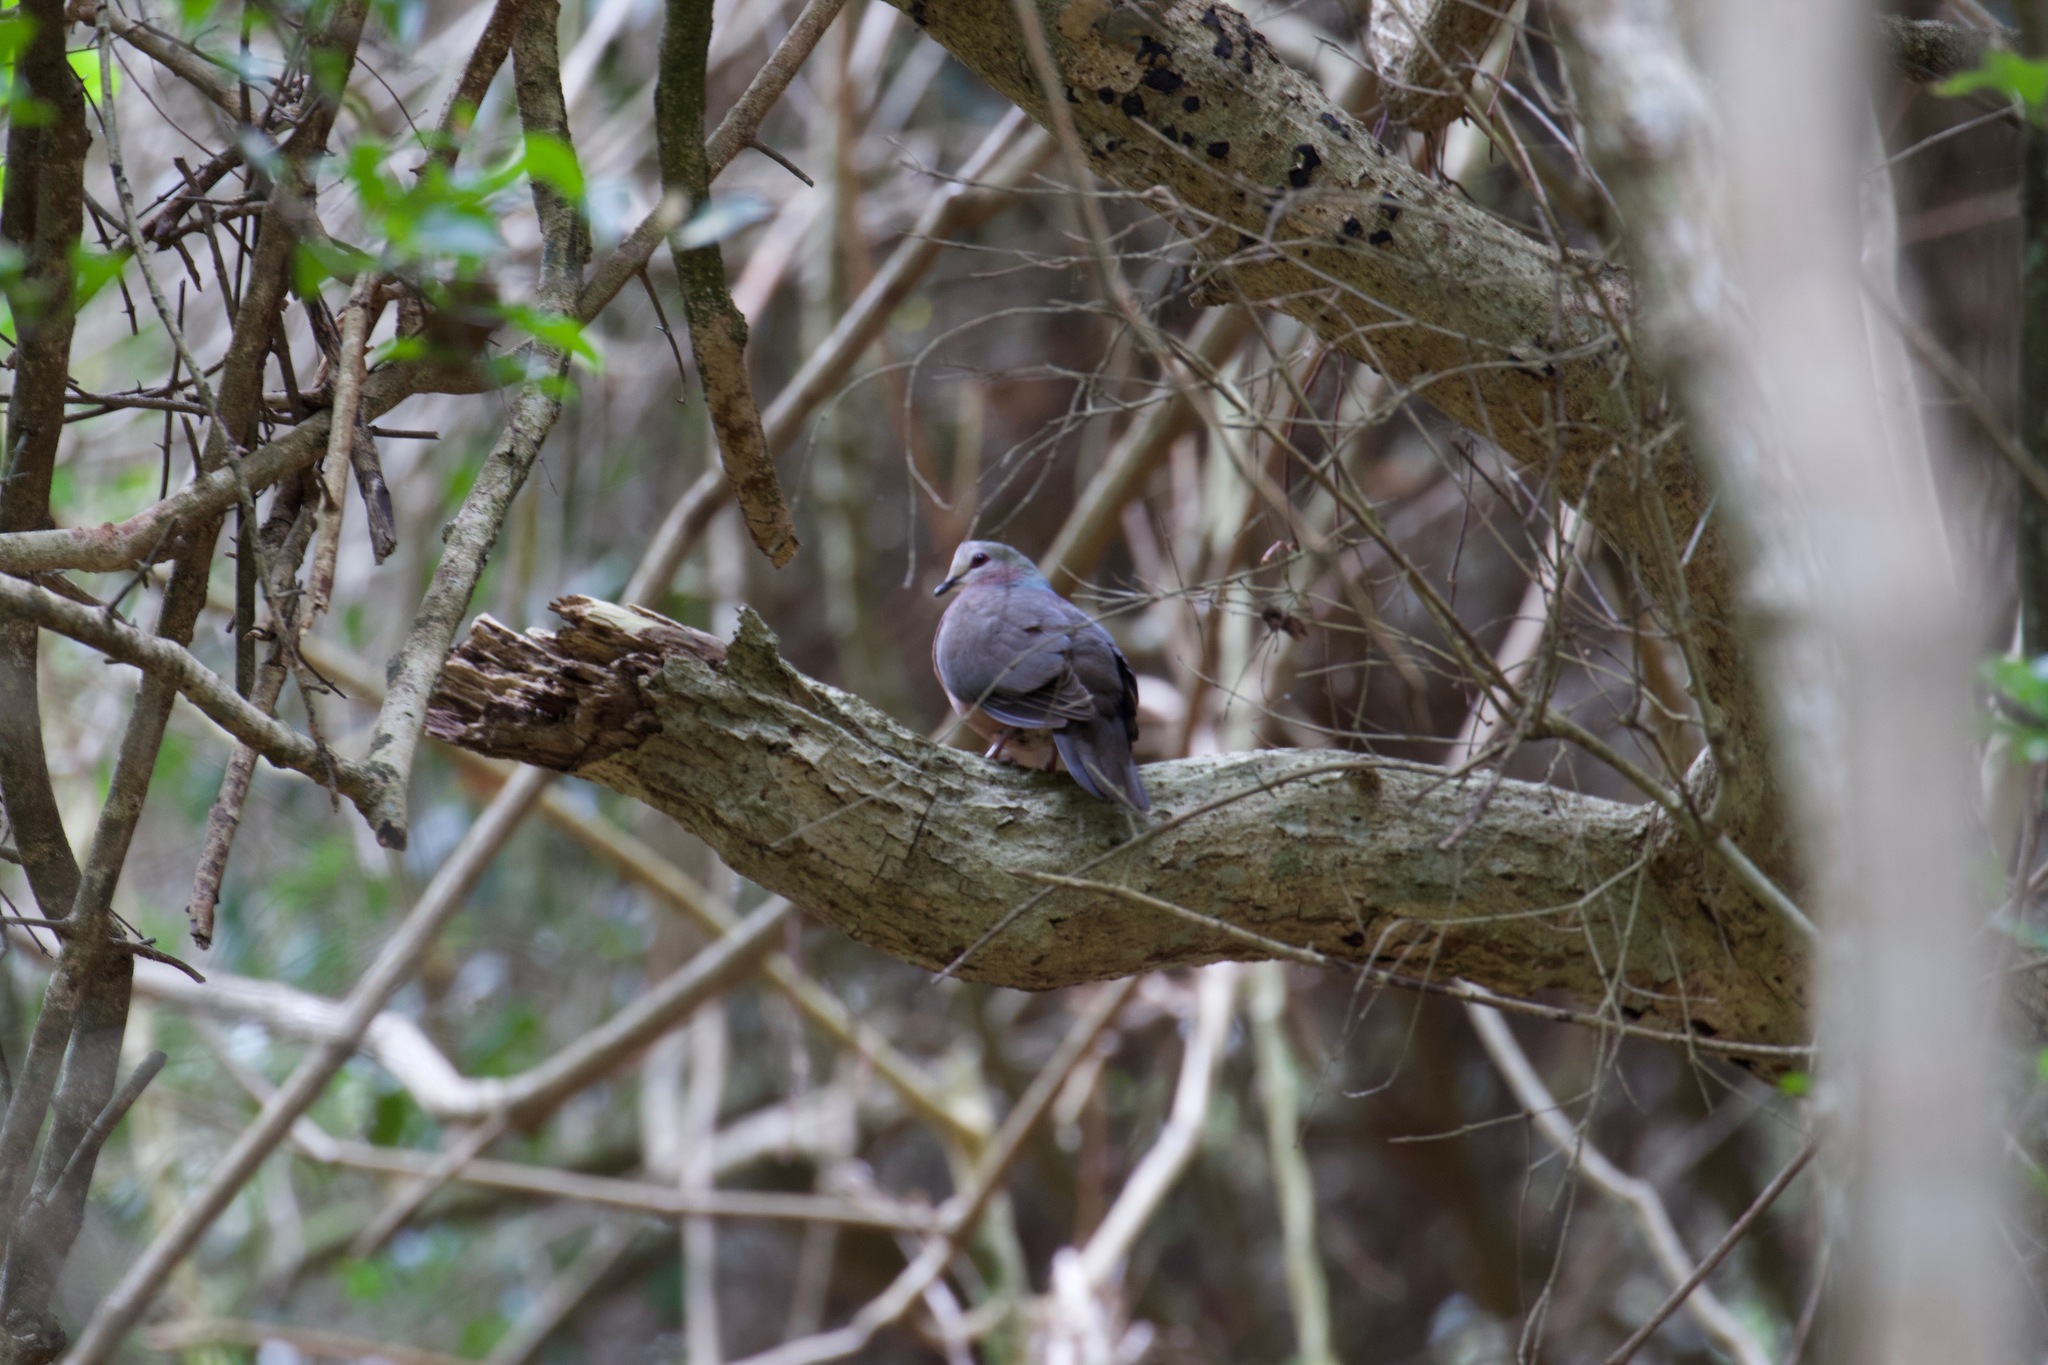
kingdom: Animalia
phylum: Chordata
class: Aves
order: Columbiformes
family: Columbidae
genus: Columba
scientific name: Columba larvata
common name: Lemon dove
